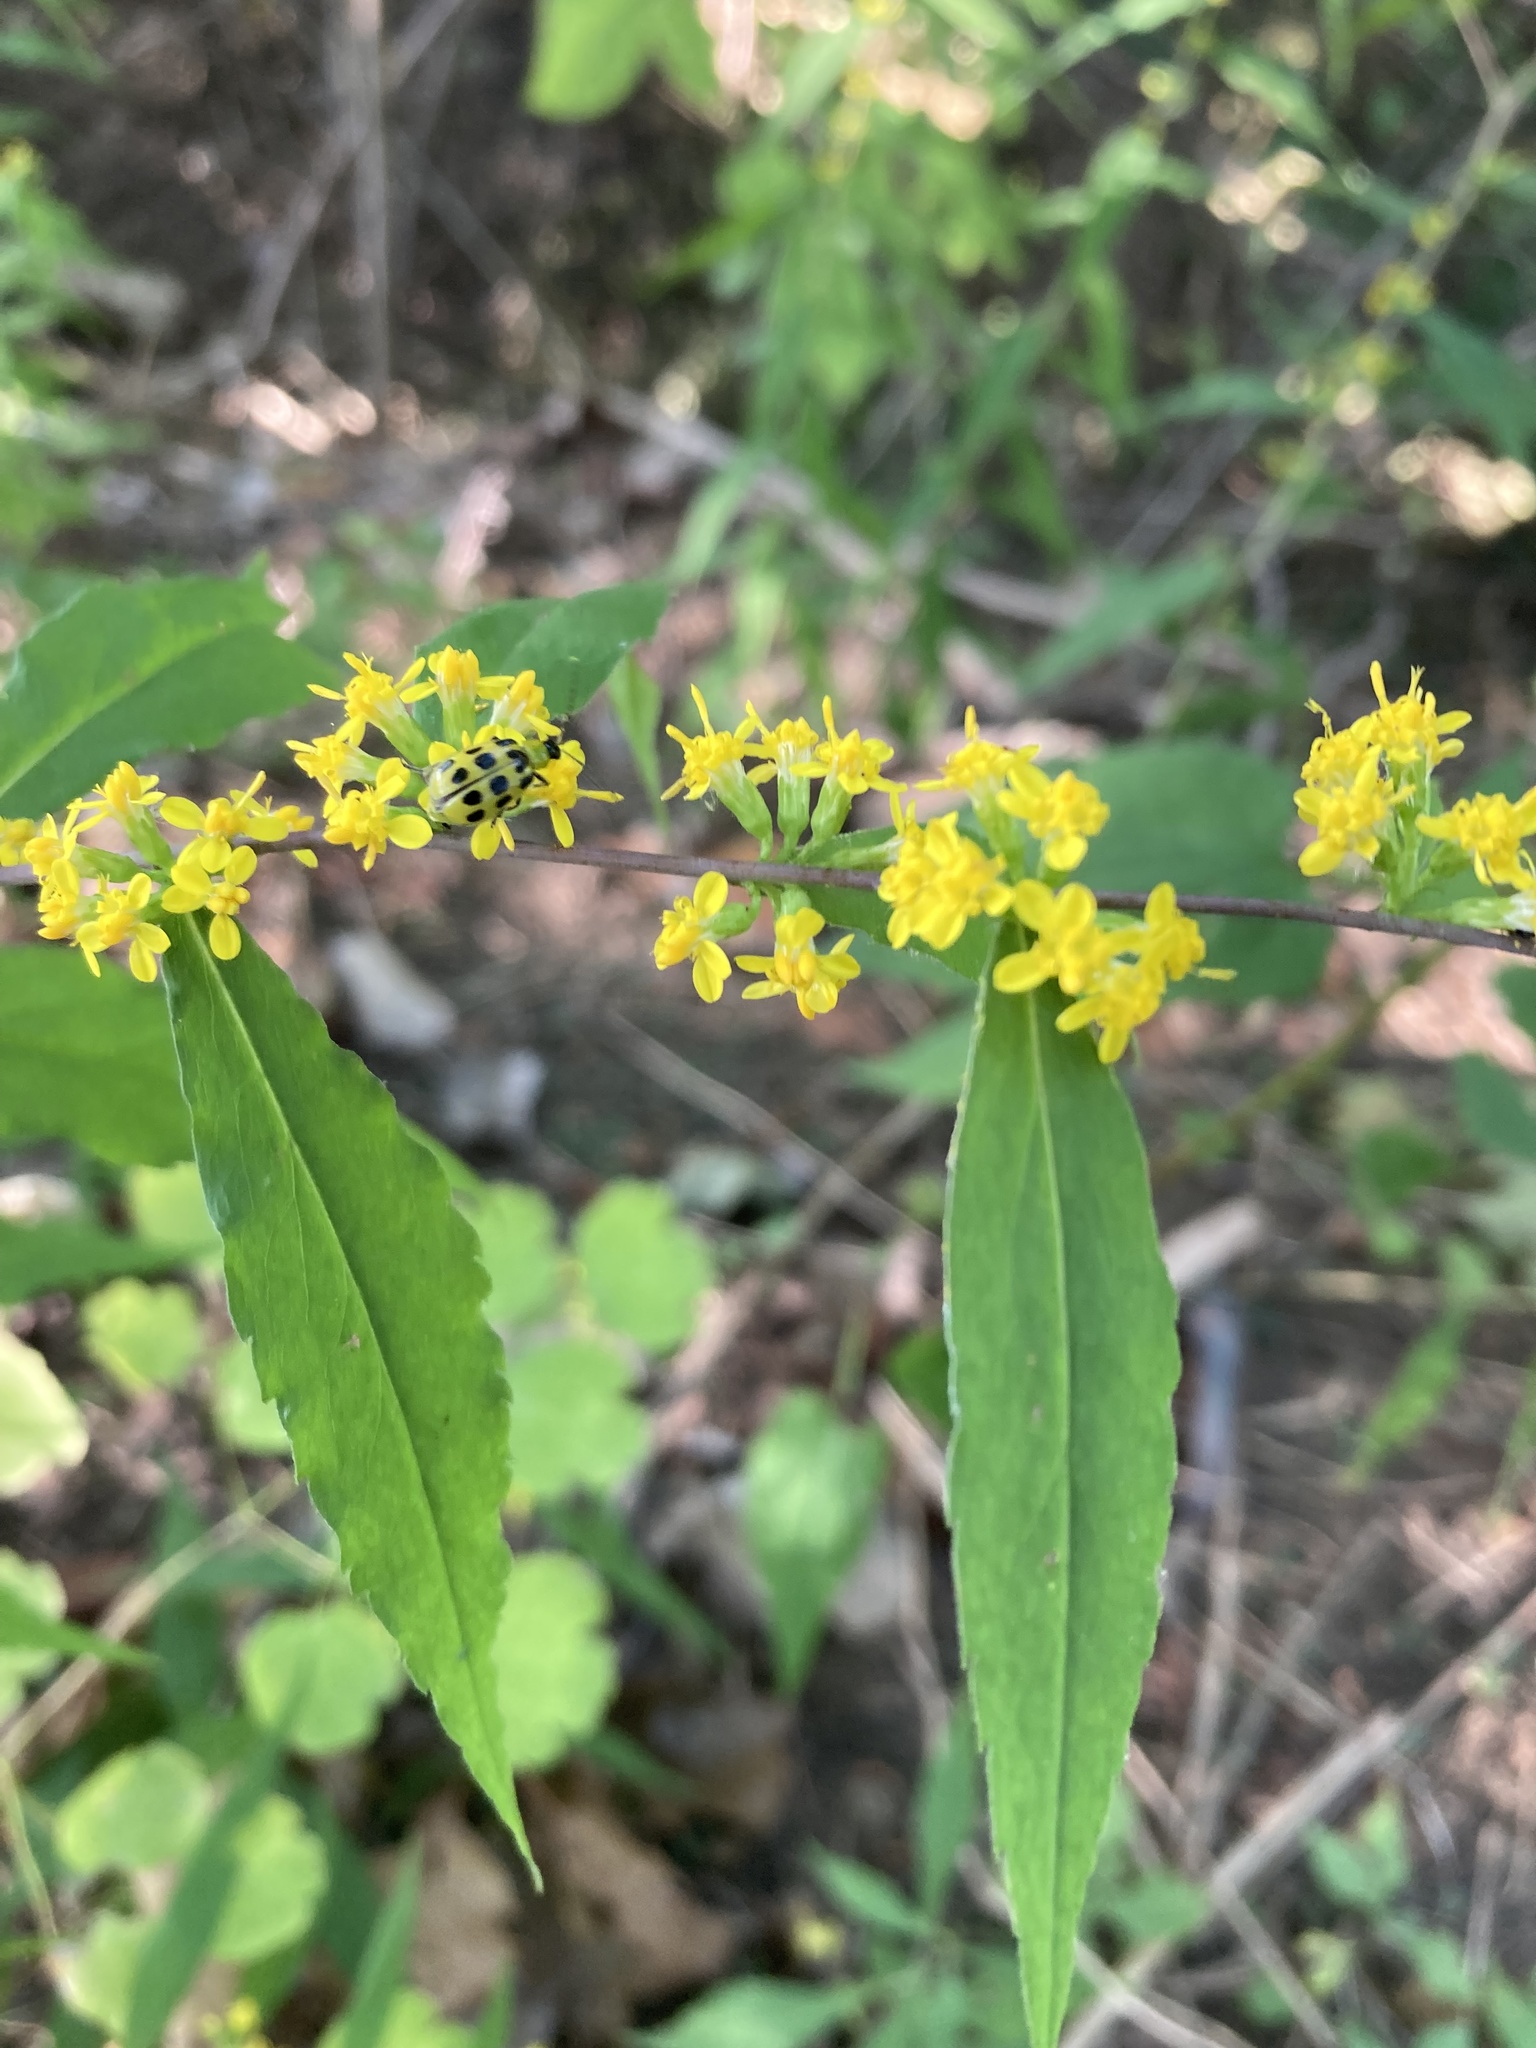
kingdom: Plantae
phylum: Tracheophyta
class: Magnoliopsida
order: Asterales
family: Asteraceae
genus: Solidago
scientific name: Solidago caesia
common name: Woodland goldenrod
